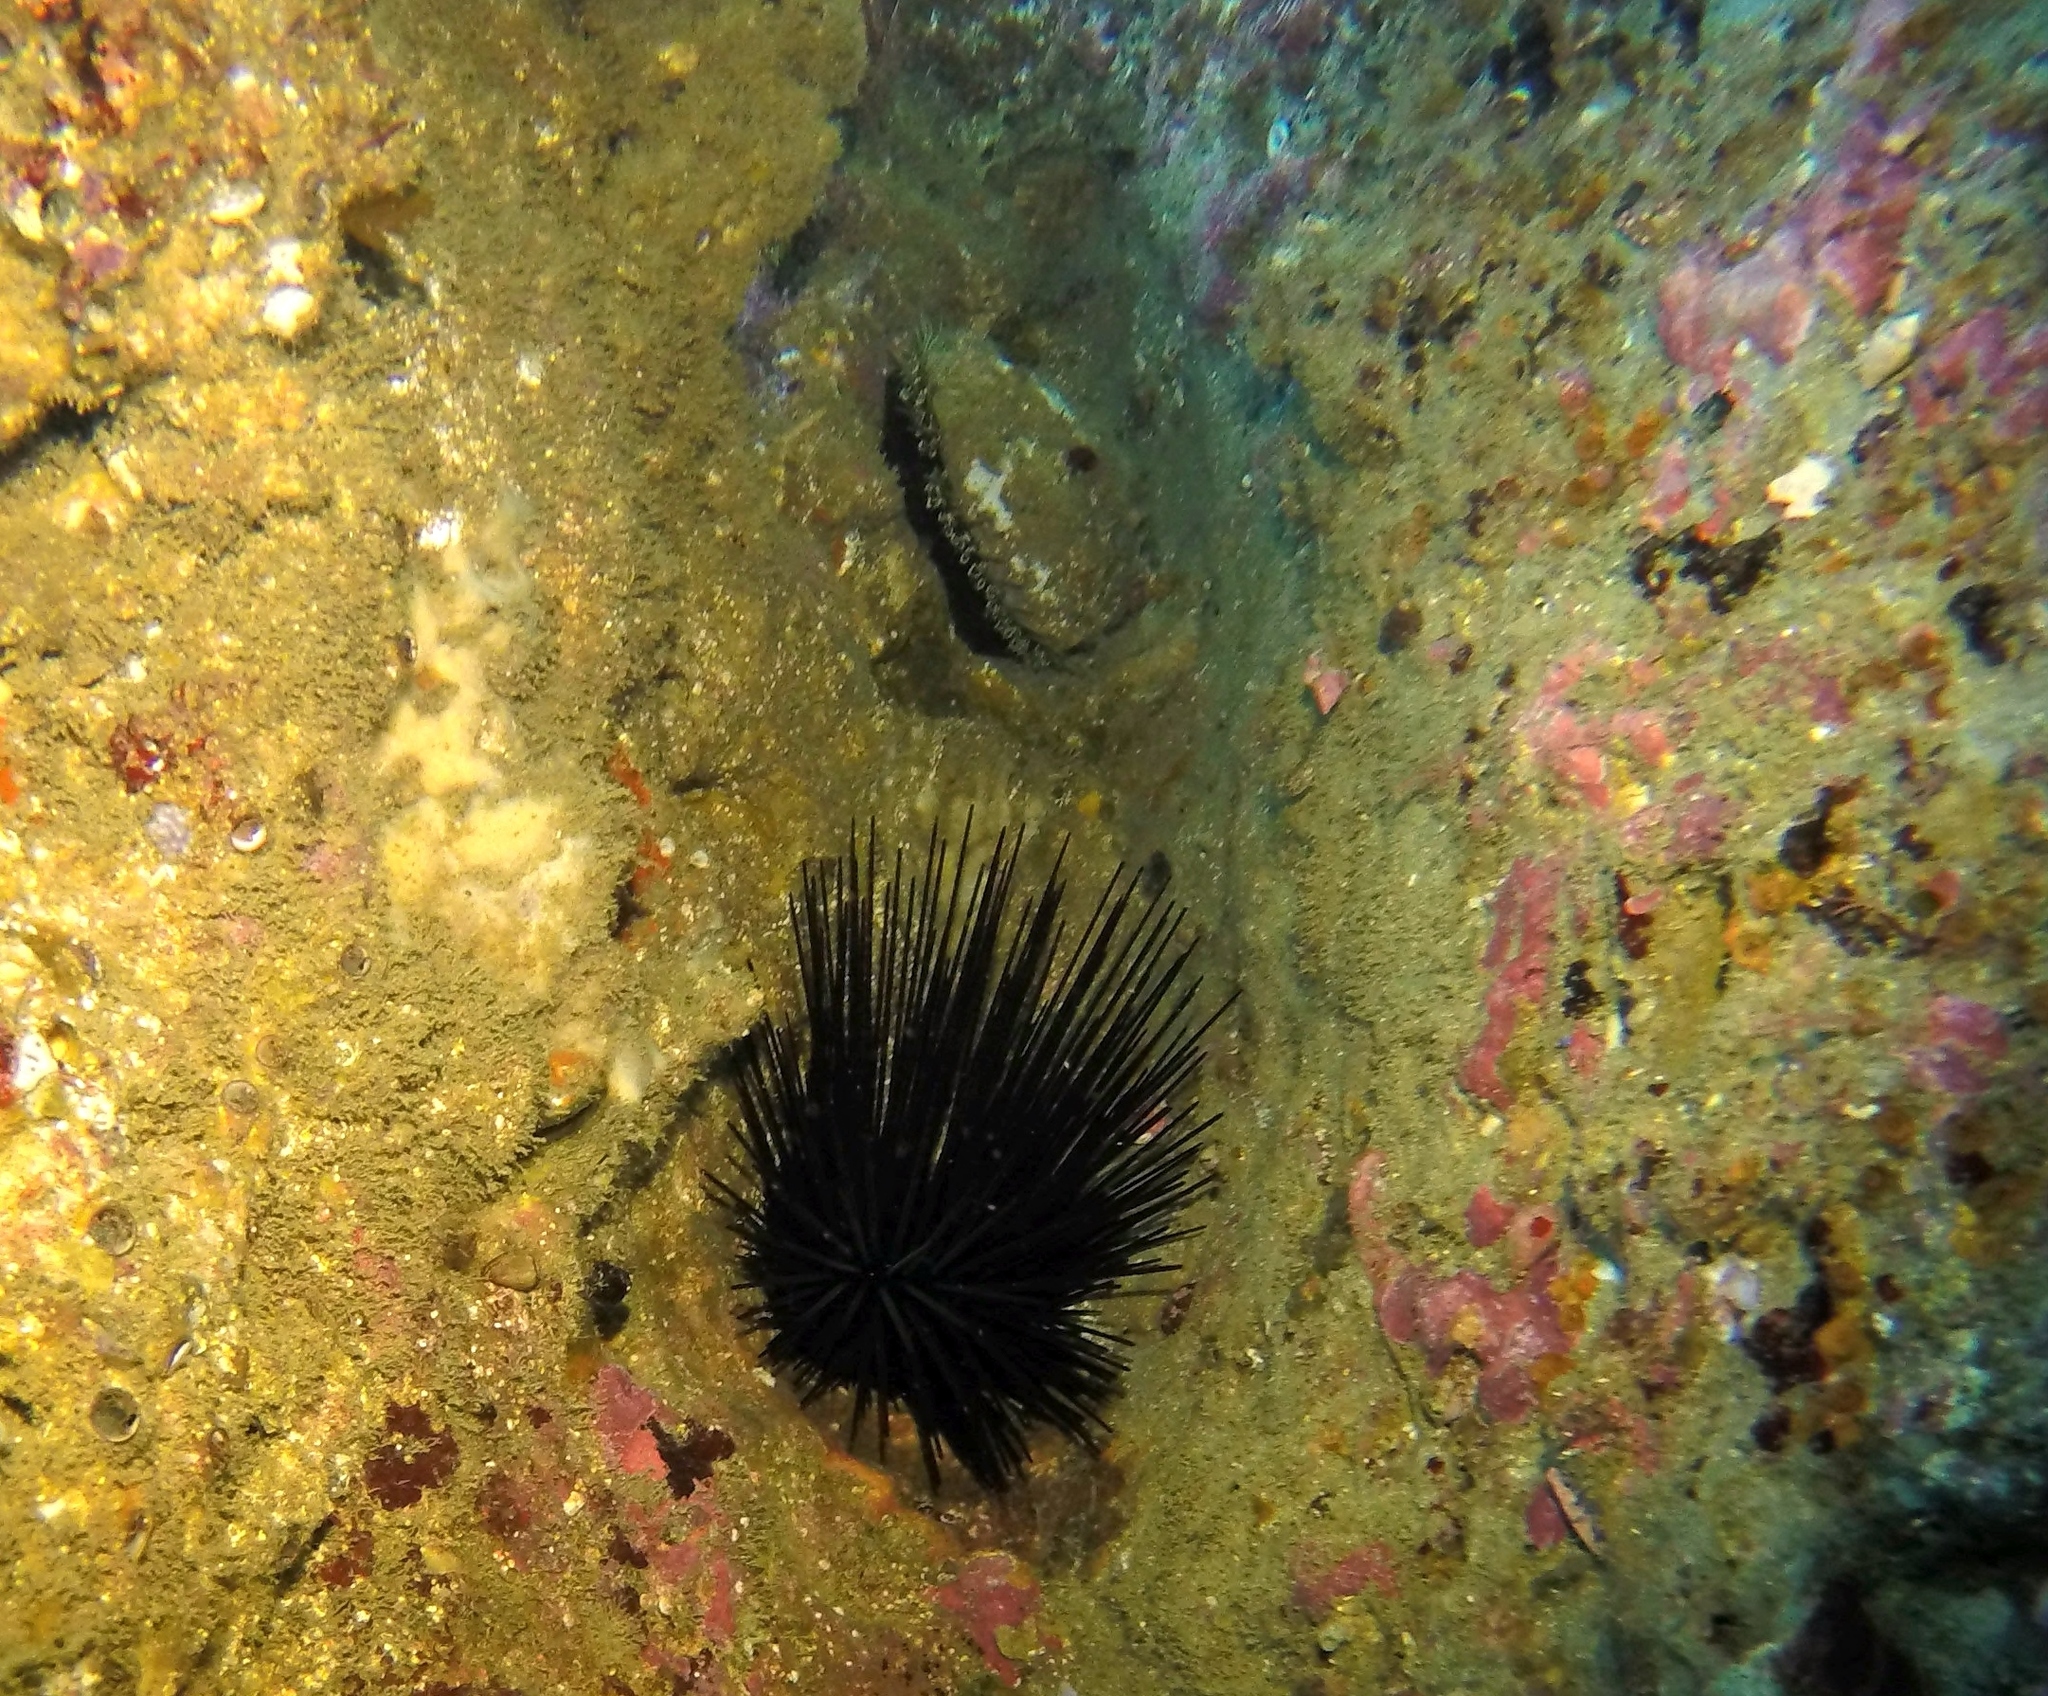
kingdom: Animalia
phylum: Mollusca
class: Gastropoda
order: Lepetellida
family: Haliotidae
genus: Haliotis
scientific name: Haliotis fulgens
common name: Green abalone
